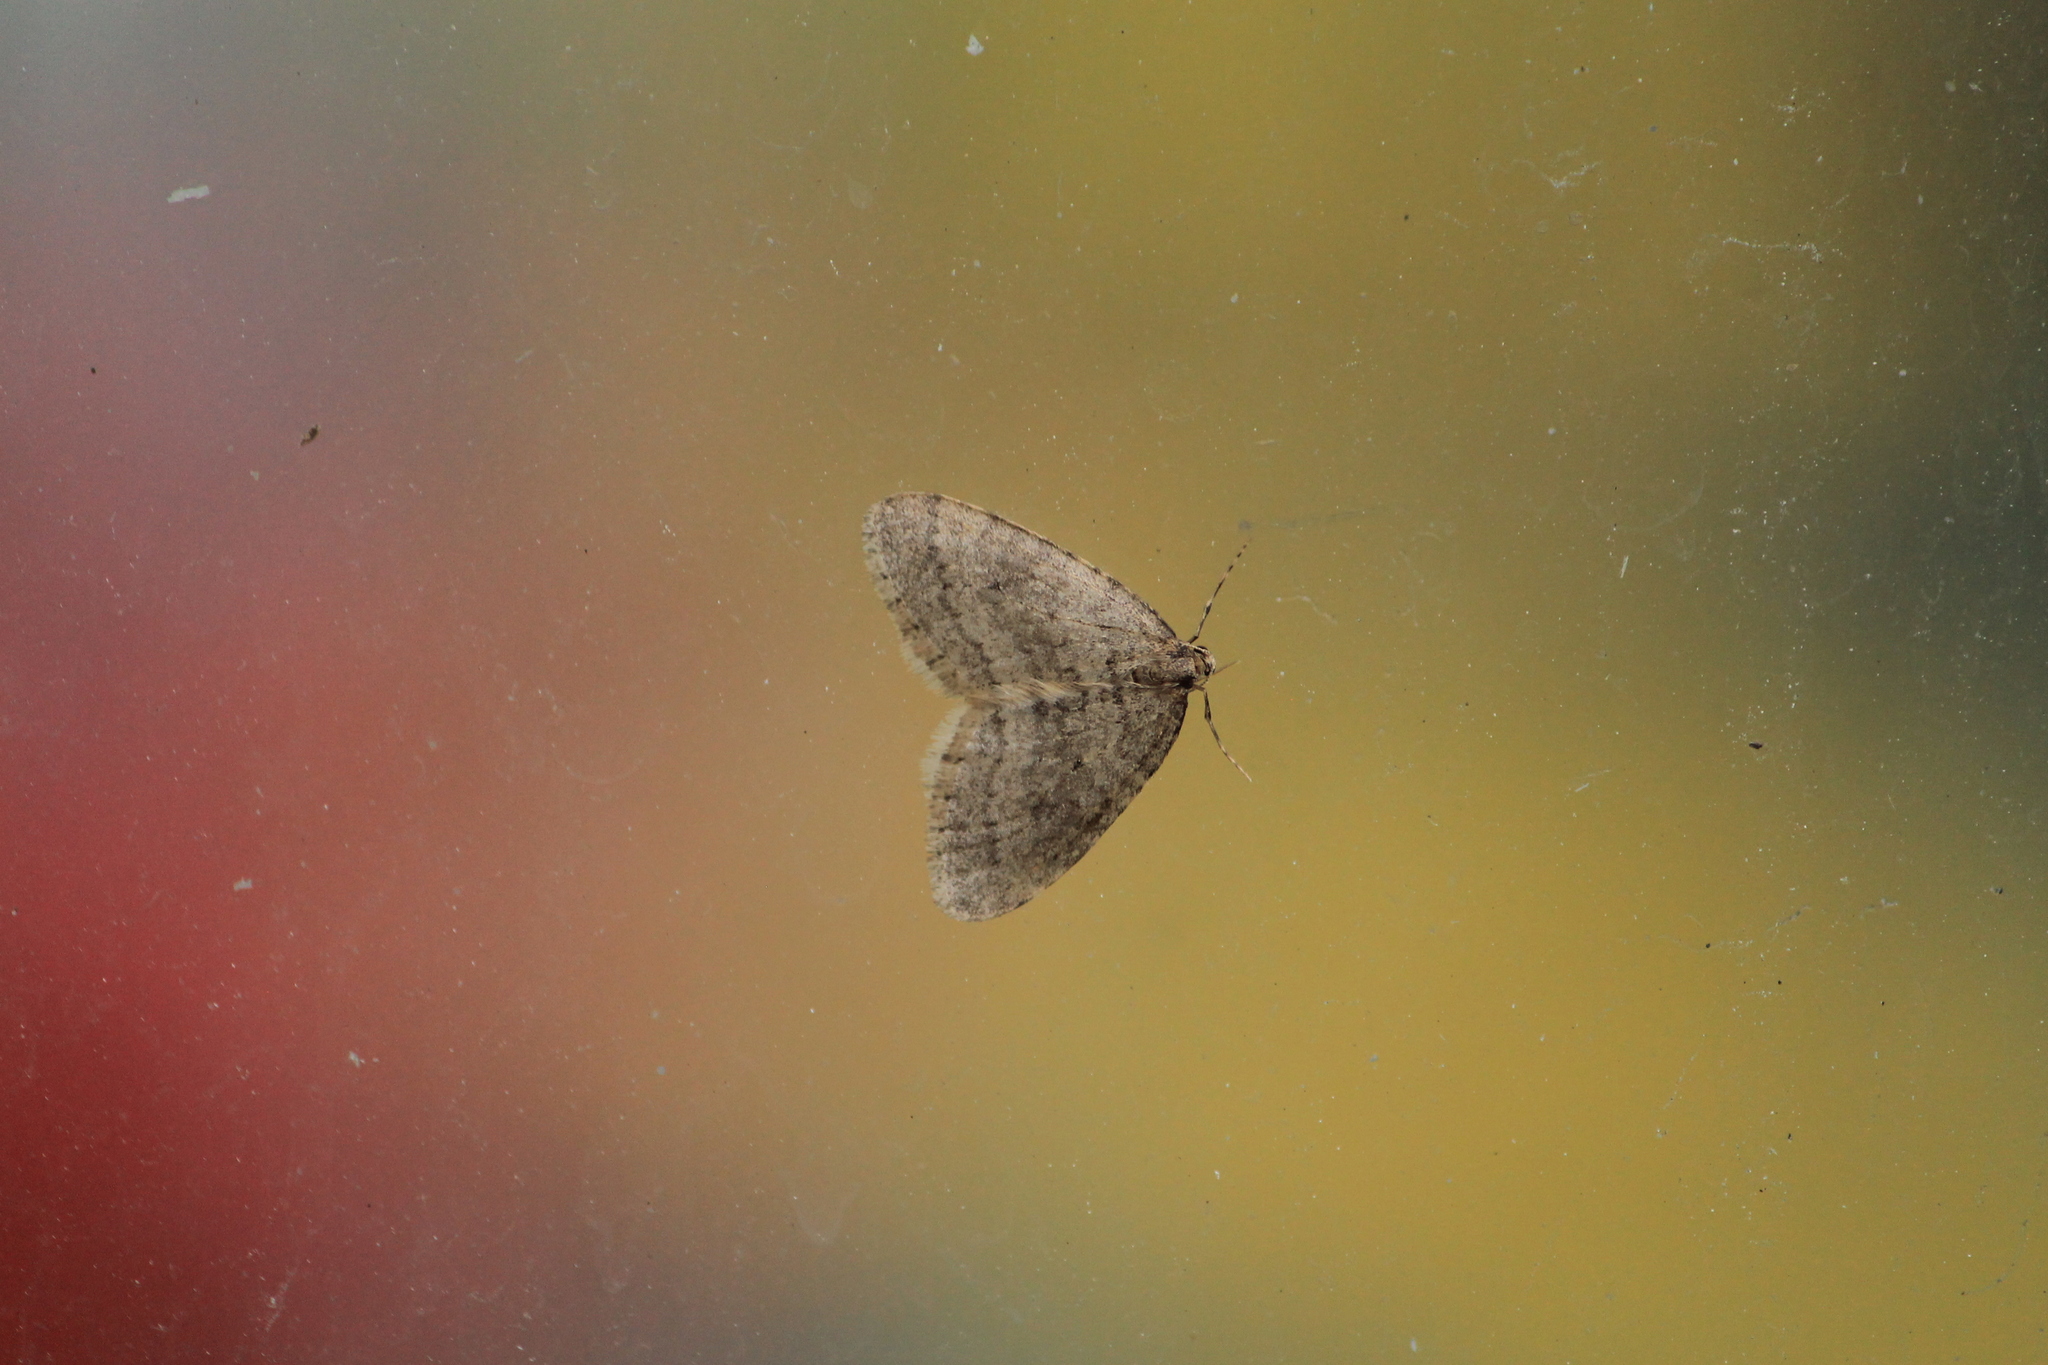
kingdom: Animalia
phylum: Arthropoda
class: Insecta
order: Lepidoptera
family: Geometridae
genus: Operophtera
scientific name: Operophtera brumata
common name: Winter moth
